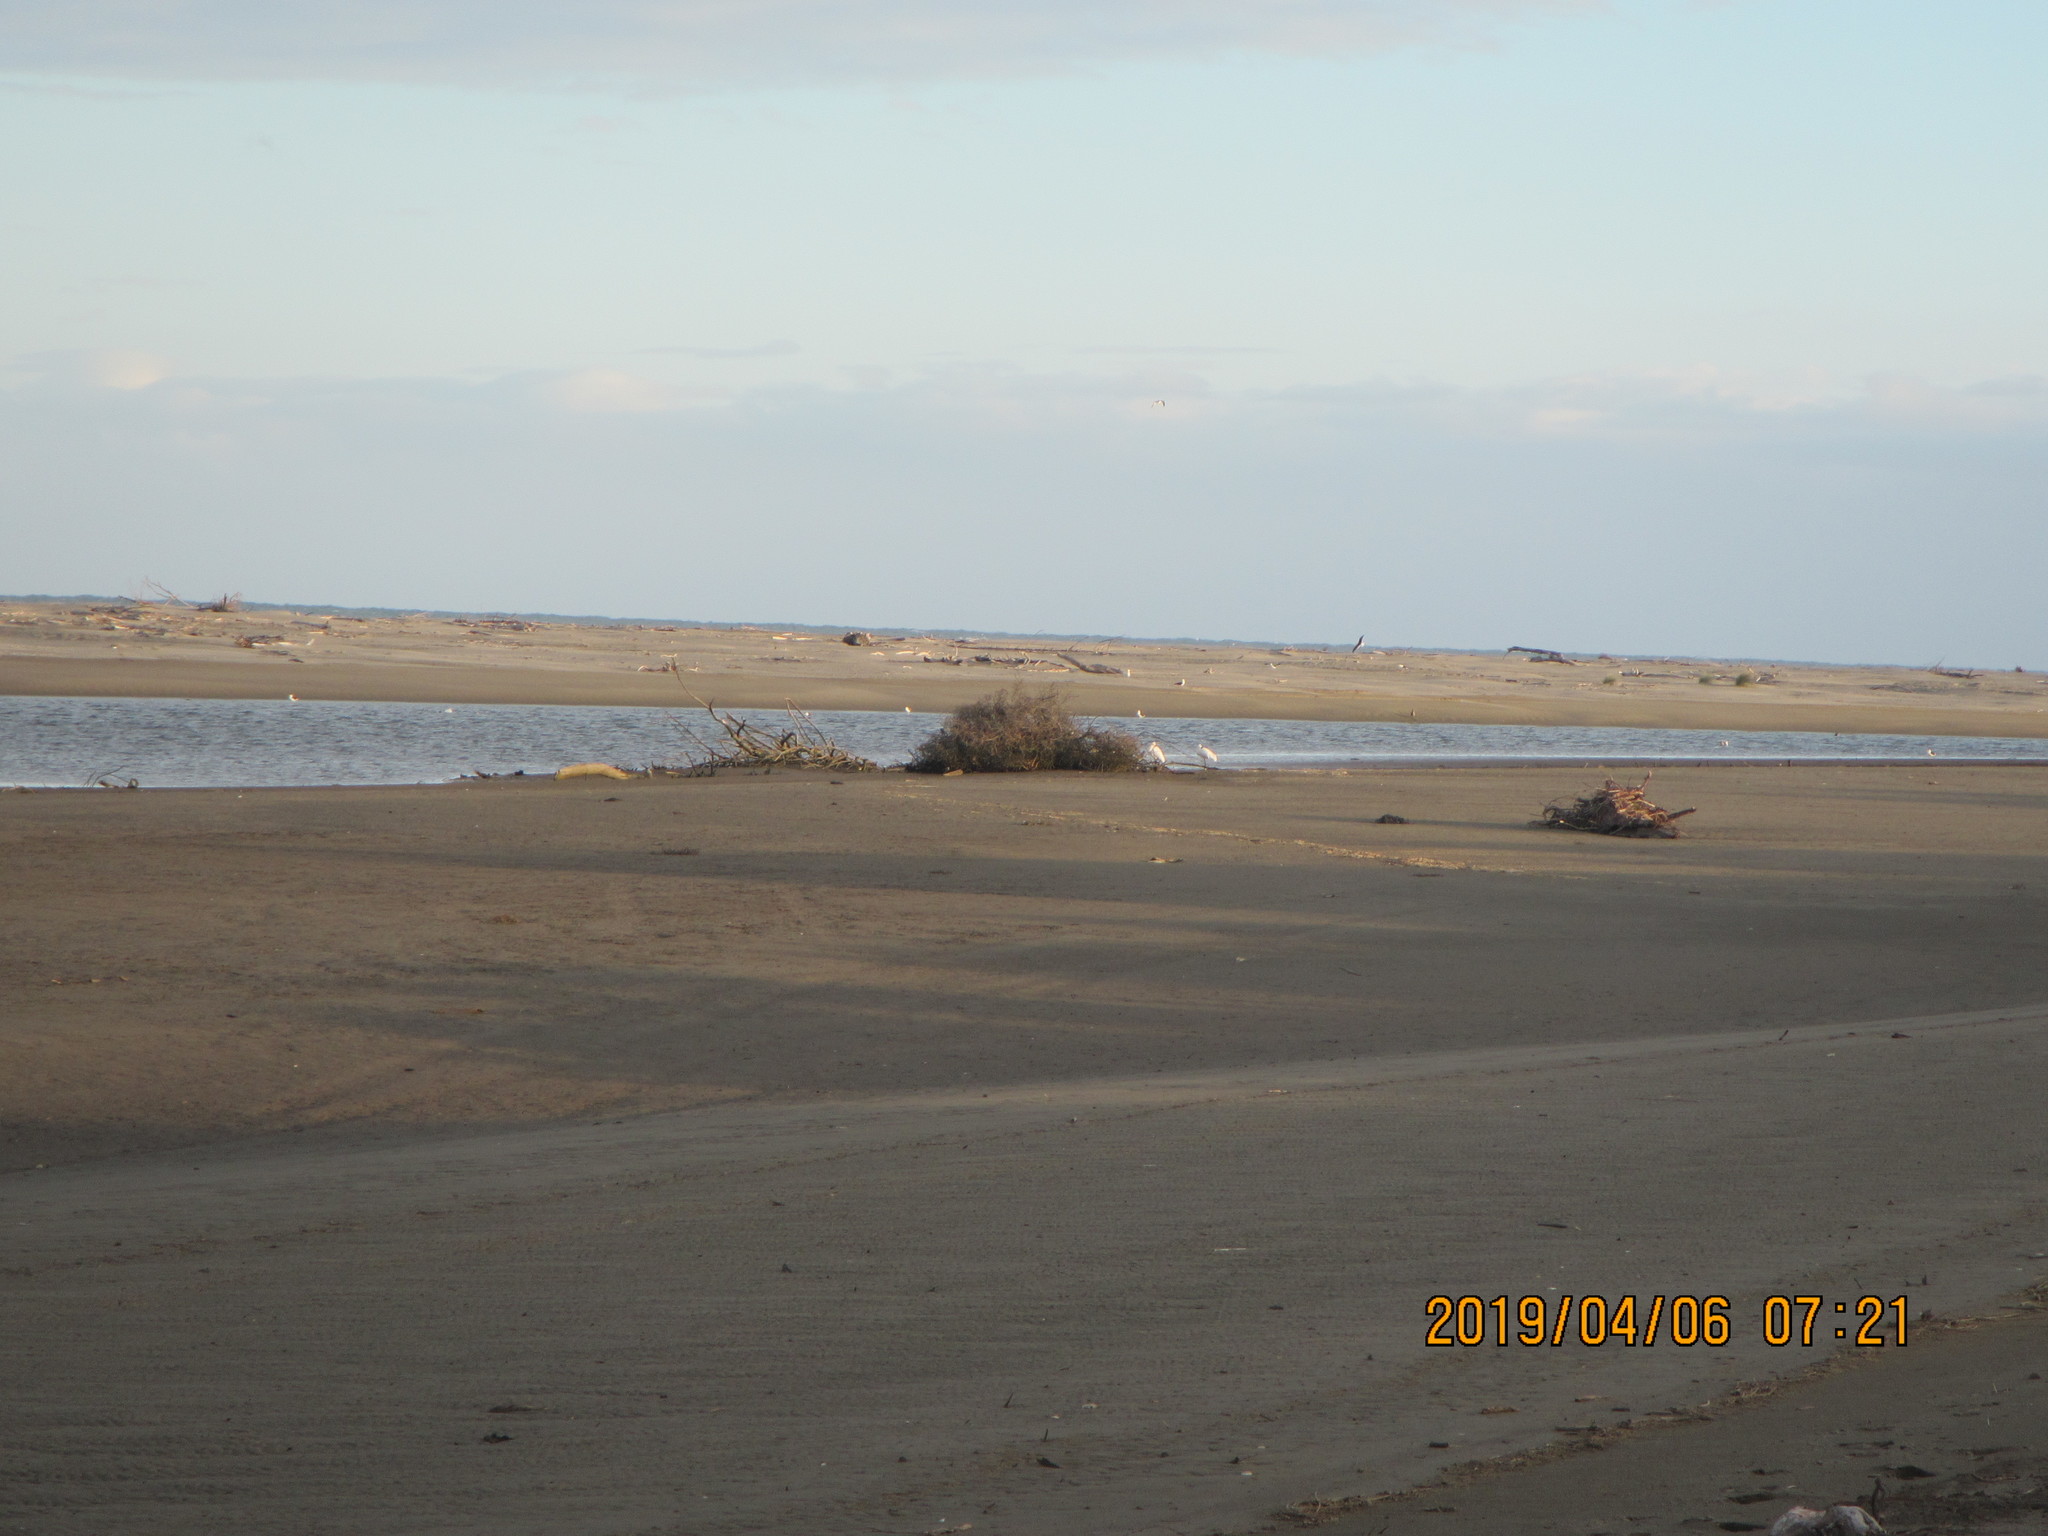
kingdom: Animalia
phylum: Chordata
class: Aves
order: Pelecaniformes
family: Threskiornithidae
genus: Platalea
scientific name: Platalea regia
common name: Royal spoonbill
